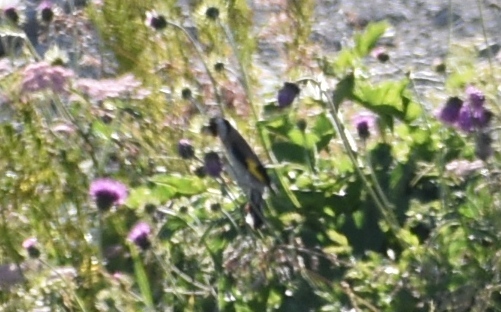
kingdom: Animalia
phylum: Chordata
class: Aves
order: Passeriformes
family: Fringillidae
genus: Carduelis
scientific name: Carduelis carduelis
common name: European goldfinch
